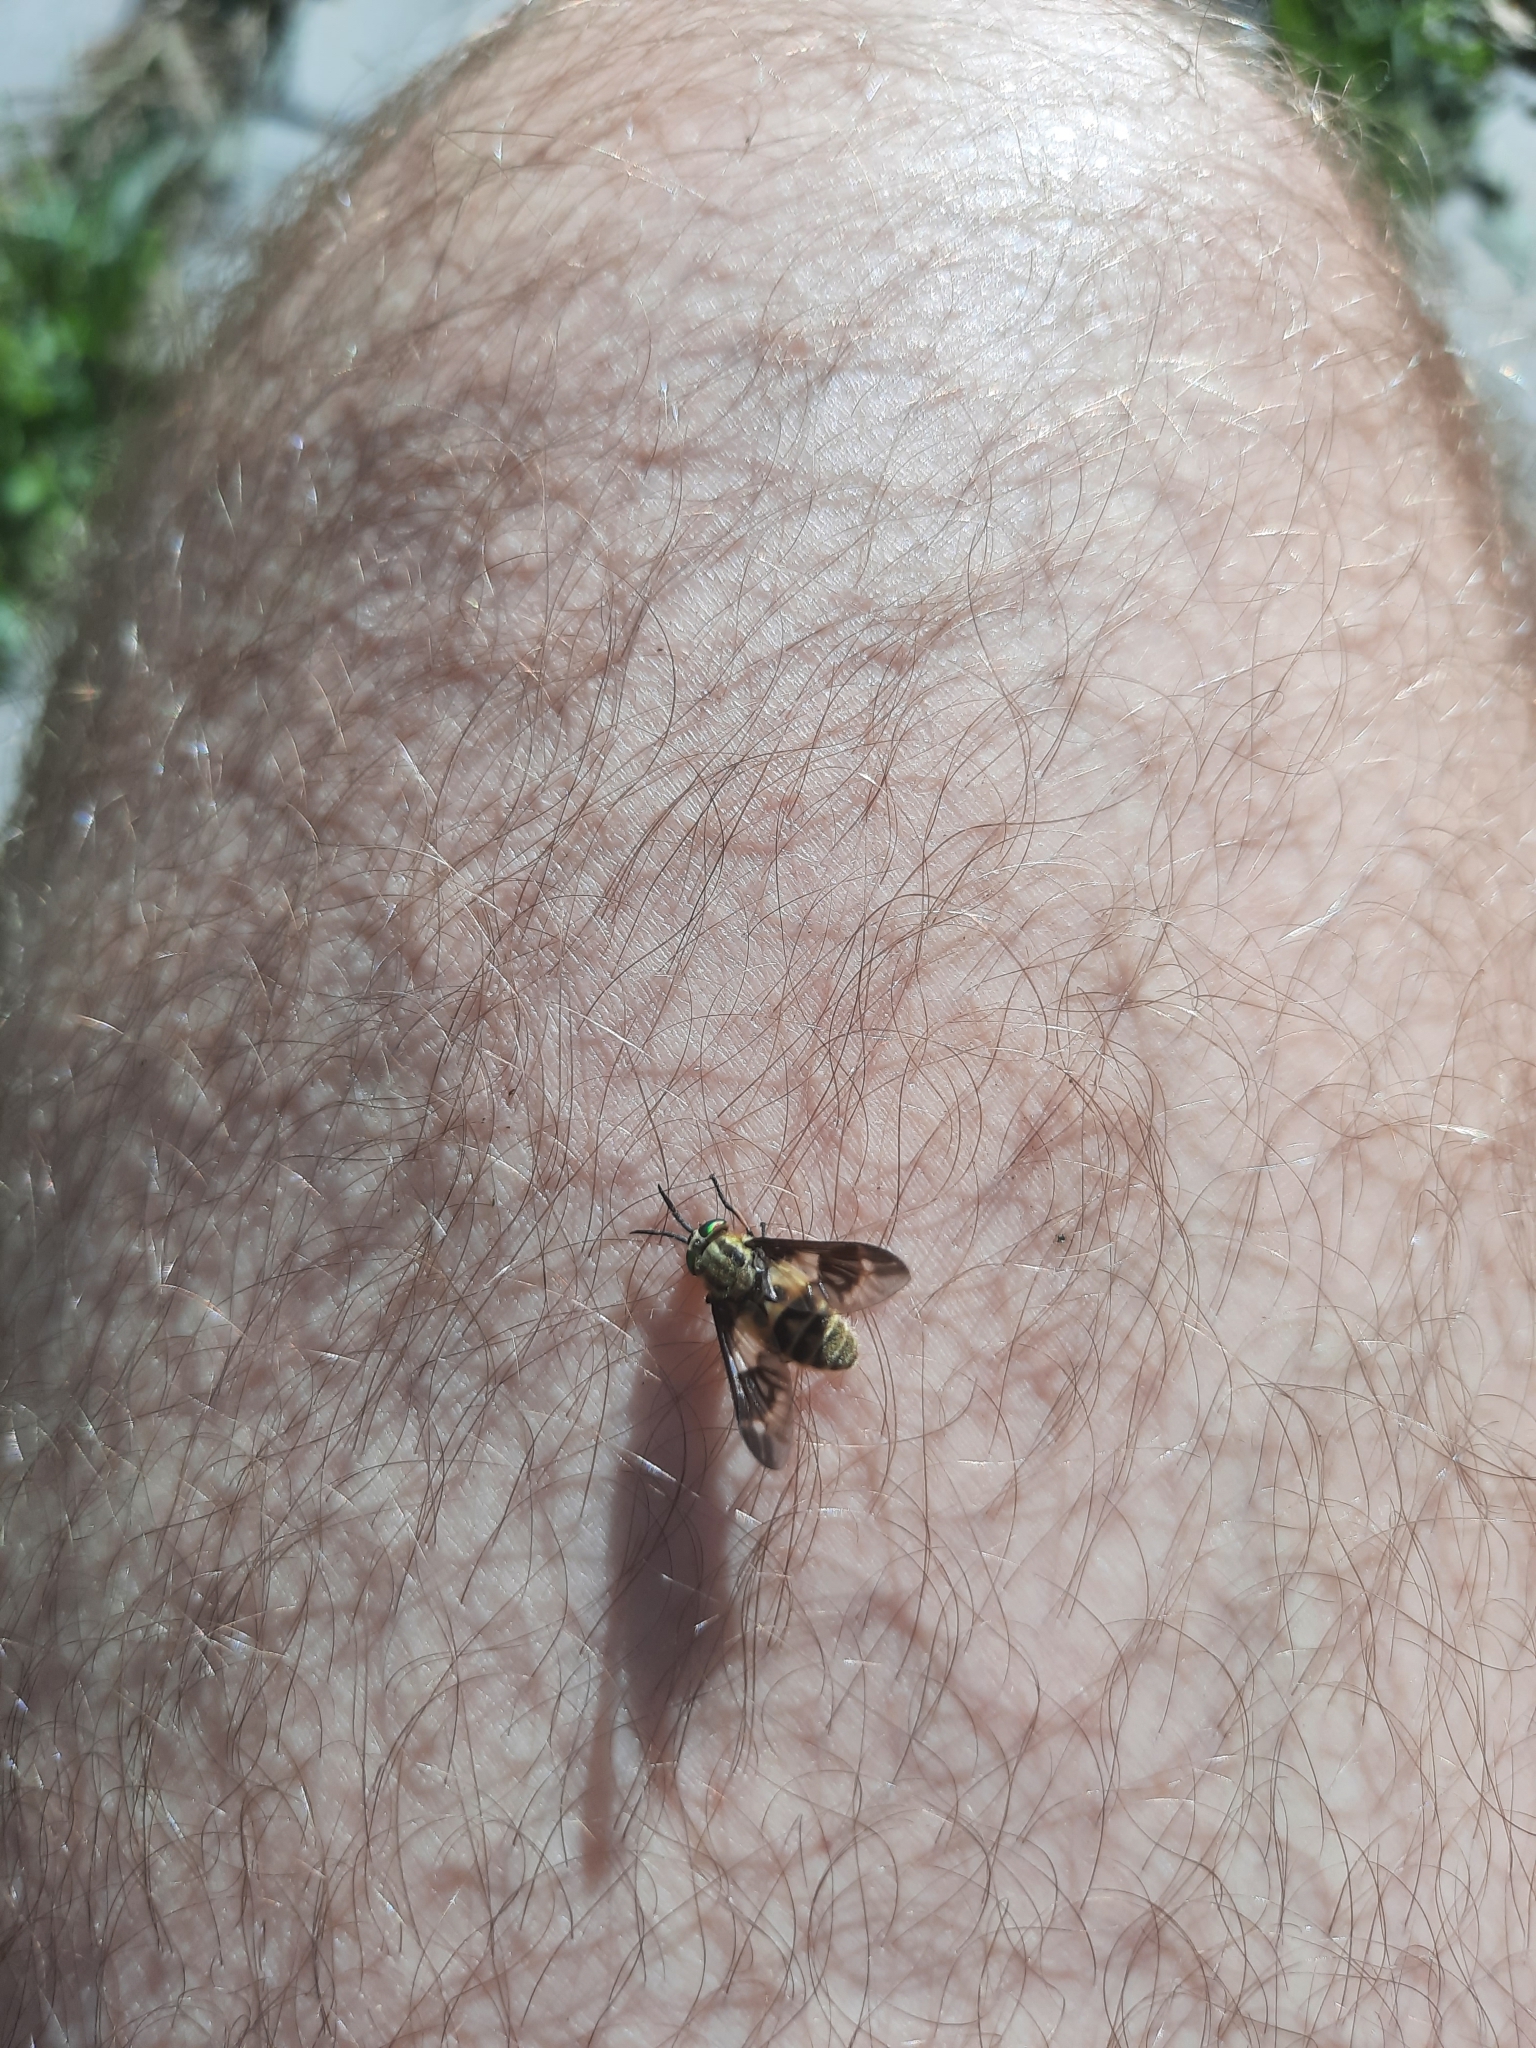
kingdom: Animalia
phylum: Arthropoda
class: Insecta
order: Diptera
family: Tabanidae
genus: Chrysops
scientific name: Chrysops relictus
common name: Twin-lobed deerfly
